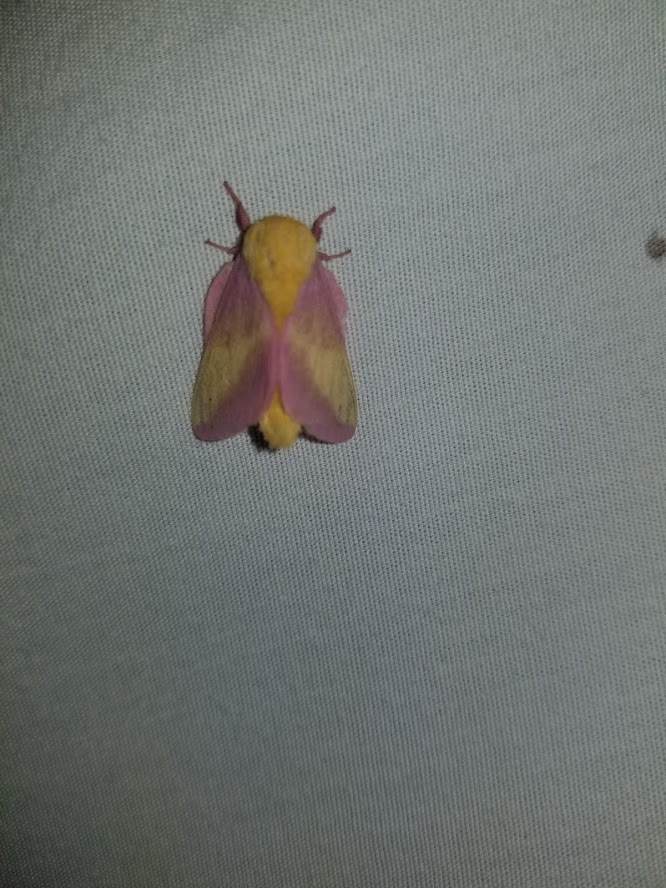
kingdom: Animalia
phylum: Arthropoda
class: Insecta
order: Lepidoptera
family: Saturniidae
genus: Dryocampa
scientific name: Dryocampa rubicunda
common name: Rosy maple moth
